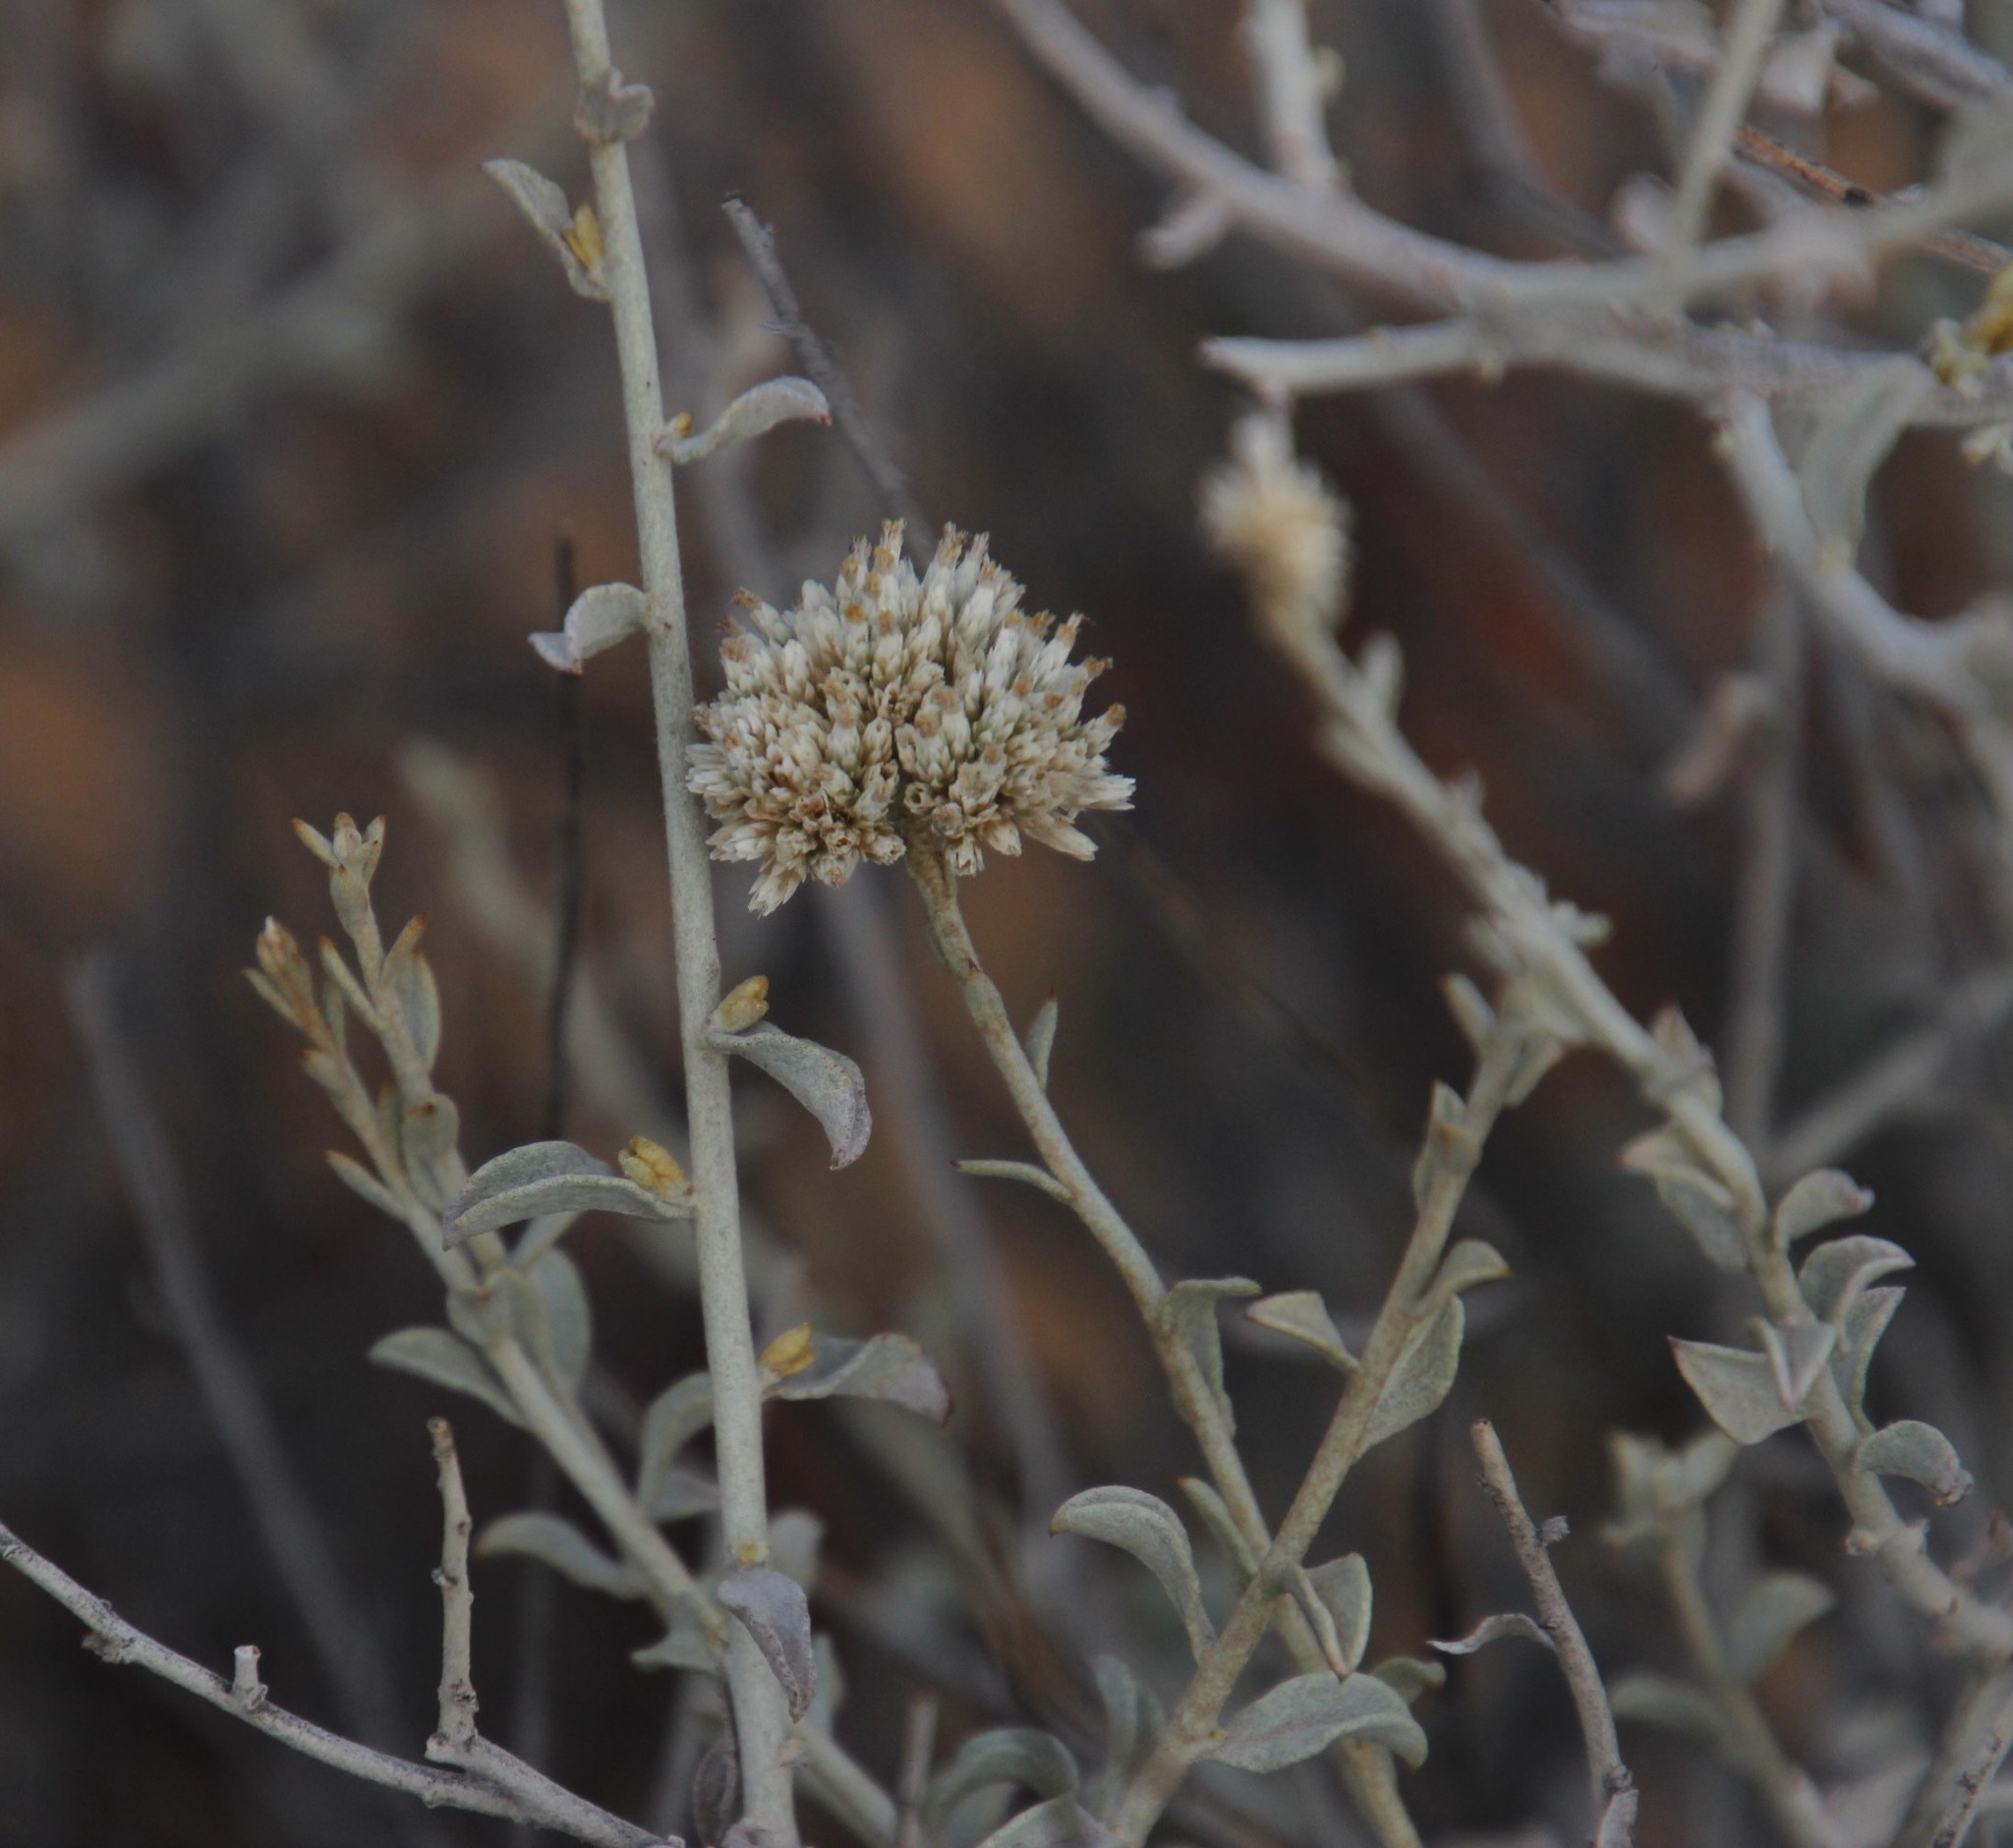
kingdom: Plantae
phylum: Tracheophyta
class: Magnoliopsida
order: Asterales
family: Asteraceae
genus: Helichrysum
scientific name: Helichrysum zeyheri
